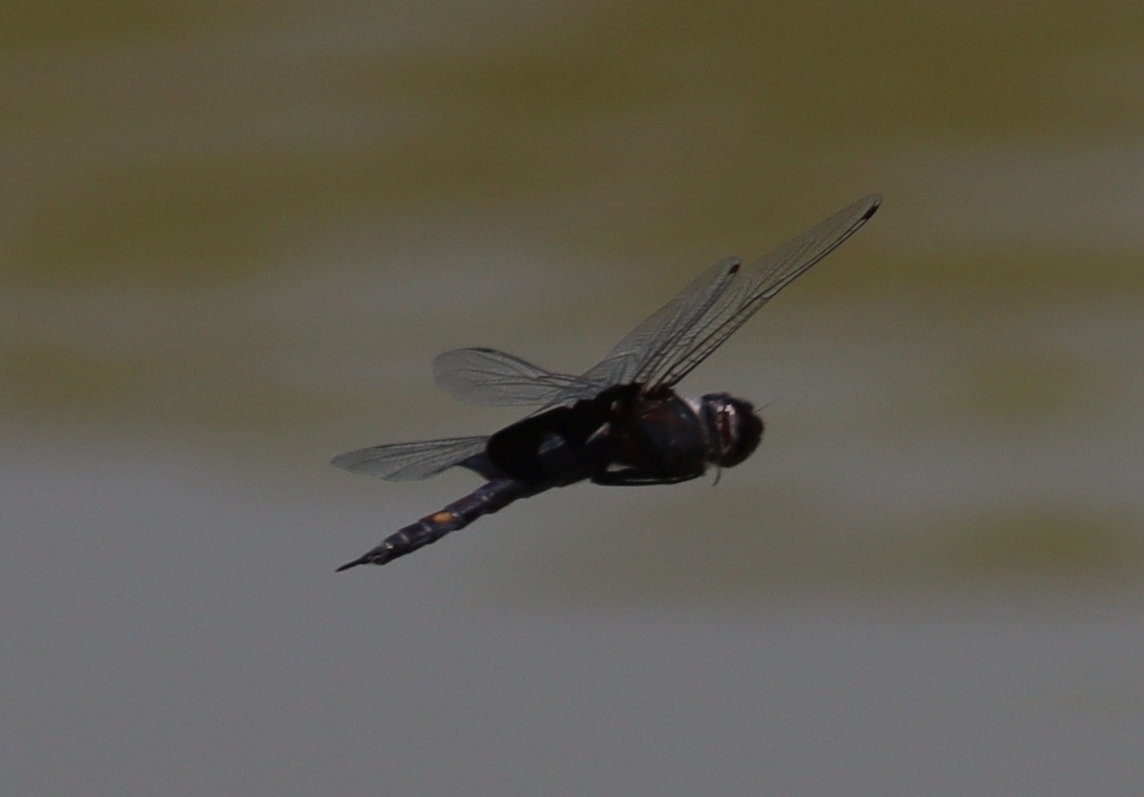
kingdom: Animalia
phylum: Arthropoda
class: Insecta
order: Odonata
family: Libellulidae
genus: Tramea
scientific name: Tramea lacerata
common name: Black saddlebags
